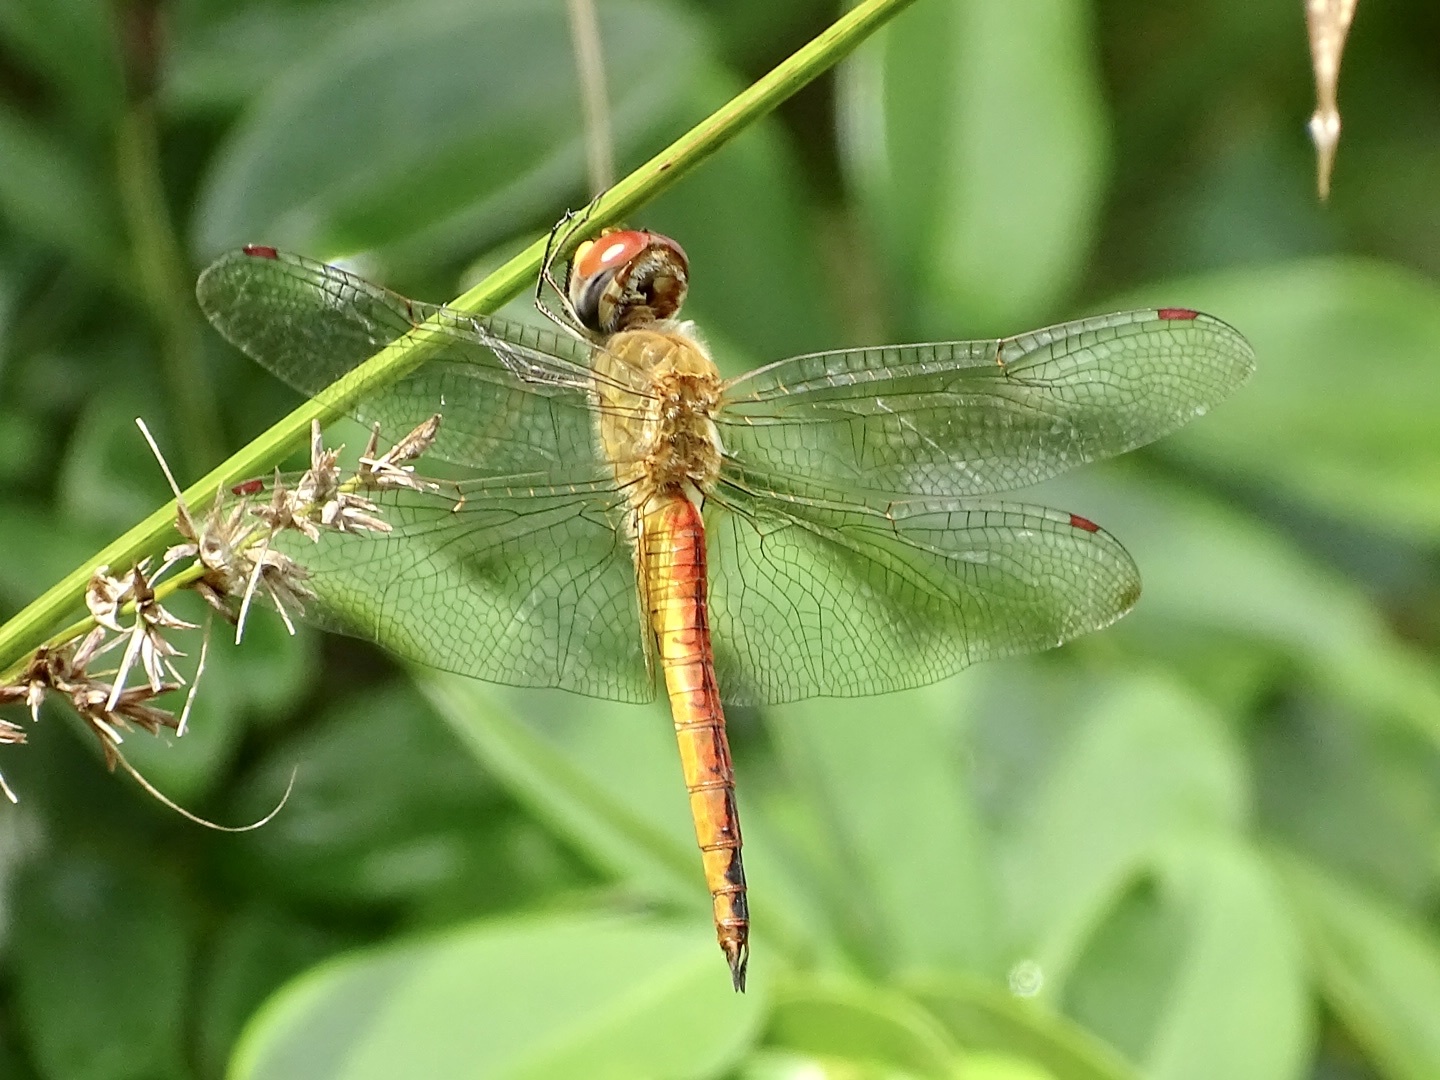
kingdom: Animalia
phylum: Arthropoda
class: Insecta
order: Odonata
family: Libellulidae
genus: Pantala
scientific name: Pantala flavescens
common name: Wandering glider
